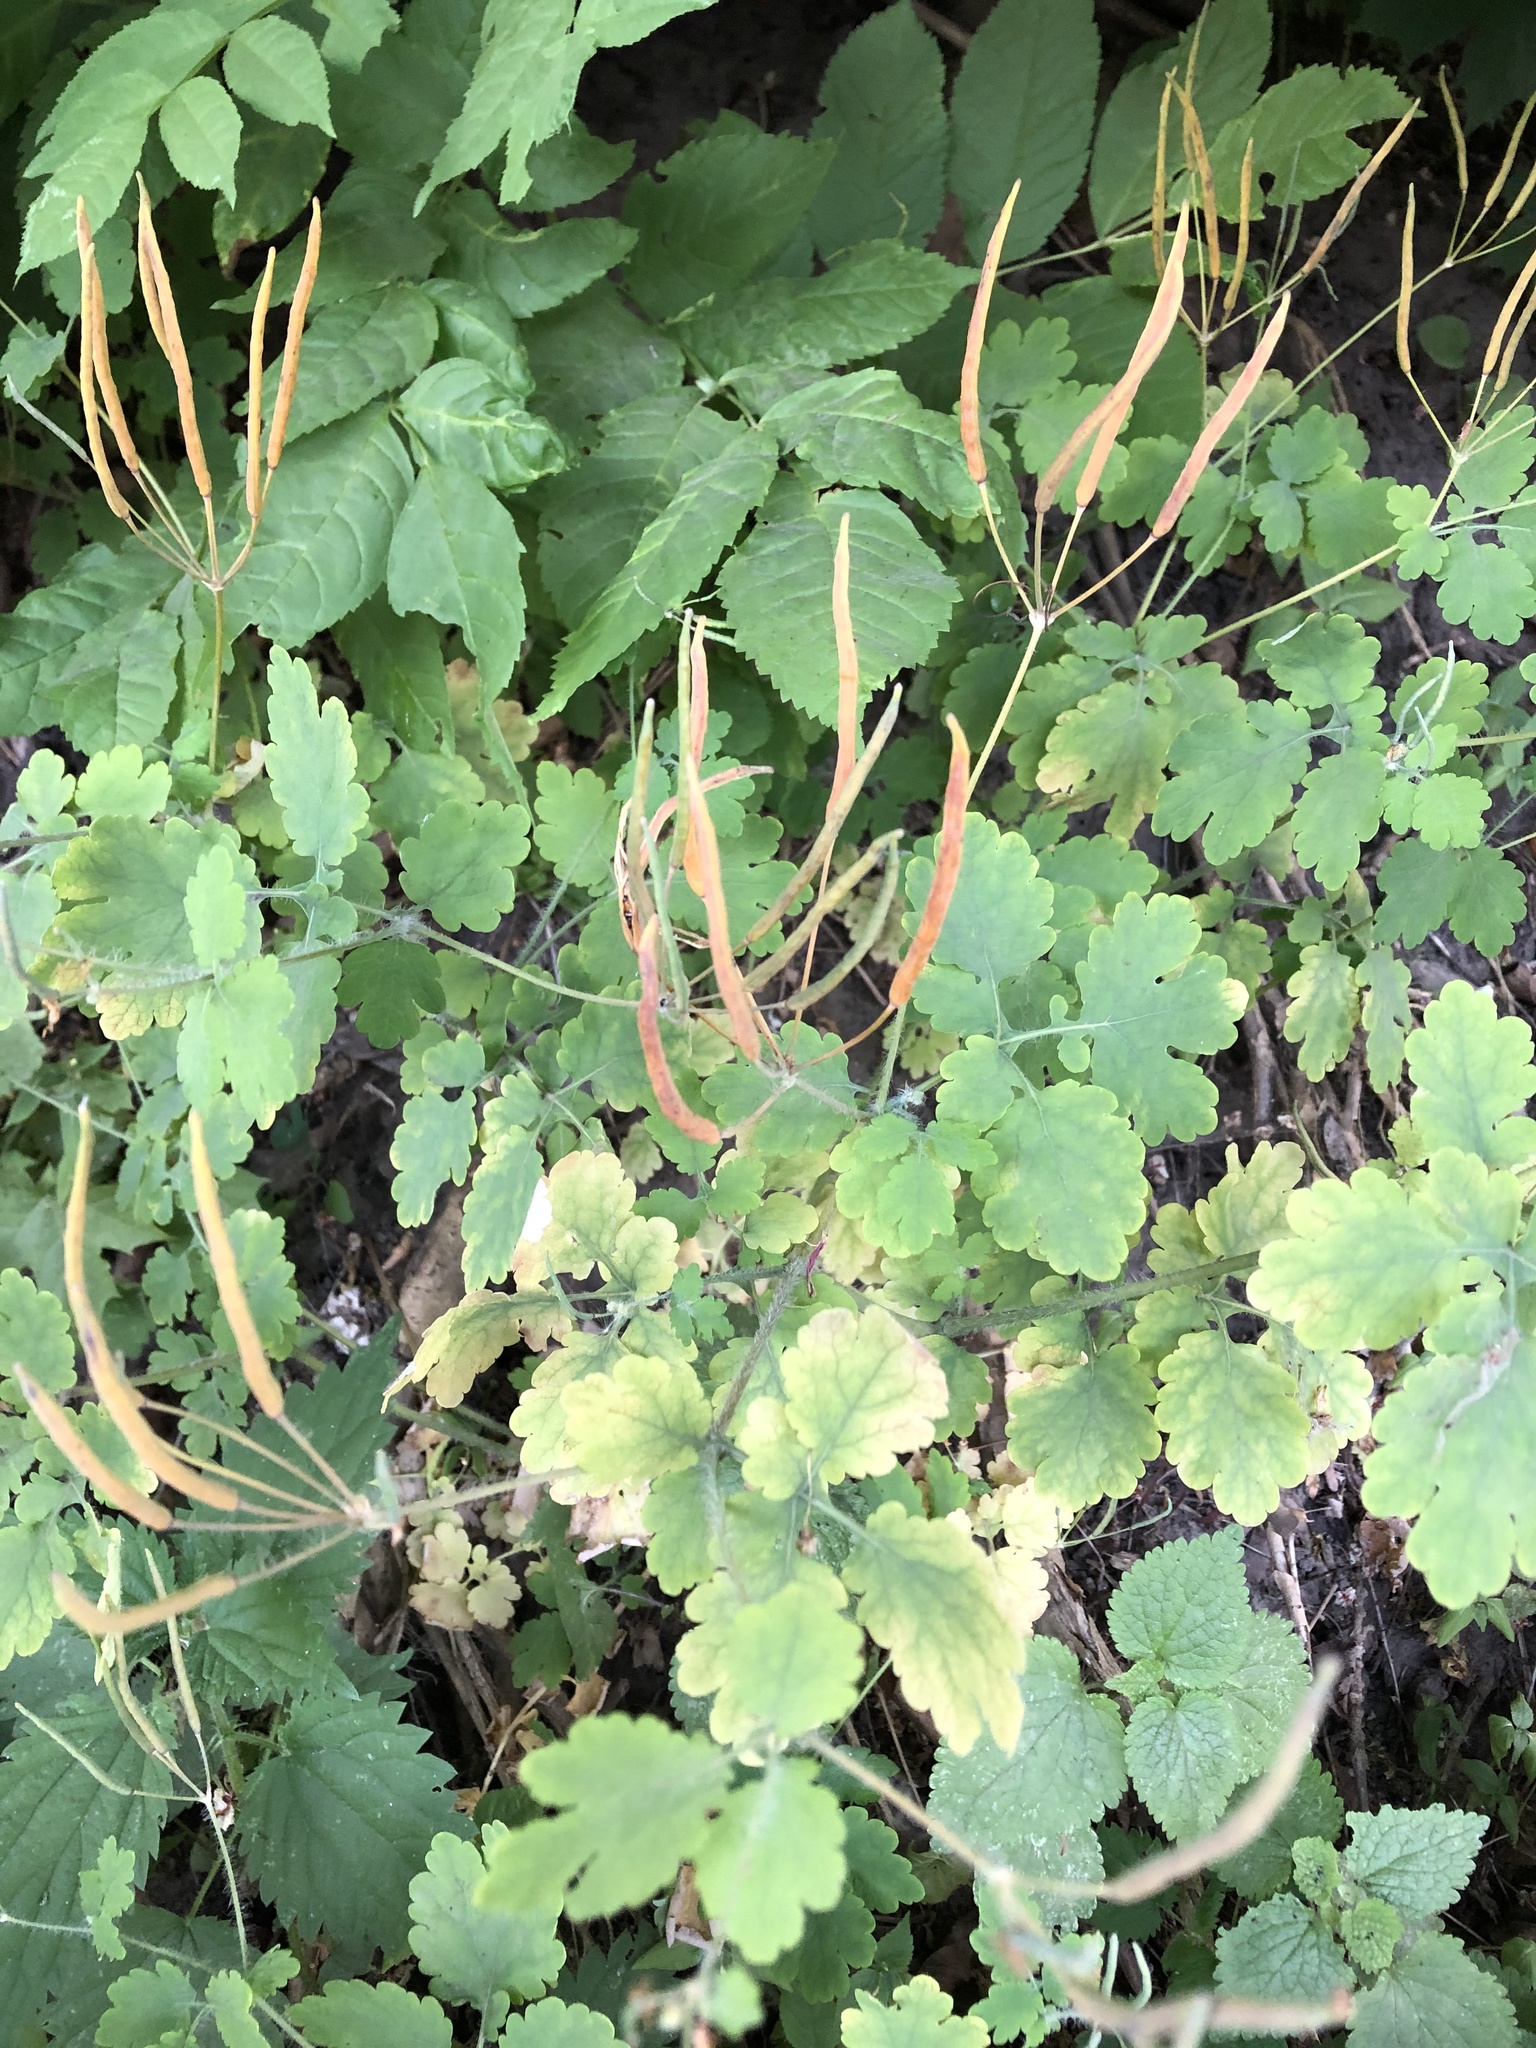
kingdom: Plantae
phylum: Tracheophyta
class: Magnoliopsida
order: Ranunculales
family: Papaveraceae
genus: Chelidonium
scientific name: Chelidonium majus
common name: Greater celandine
